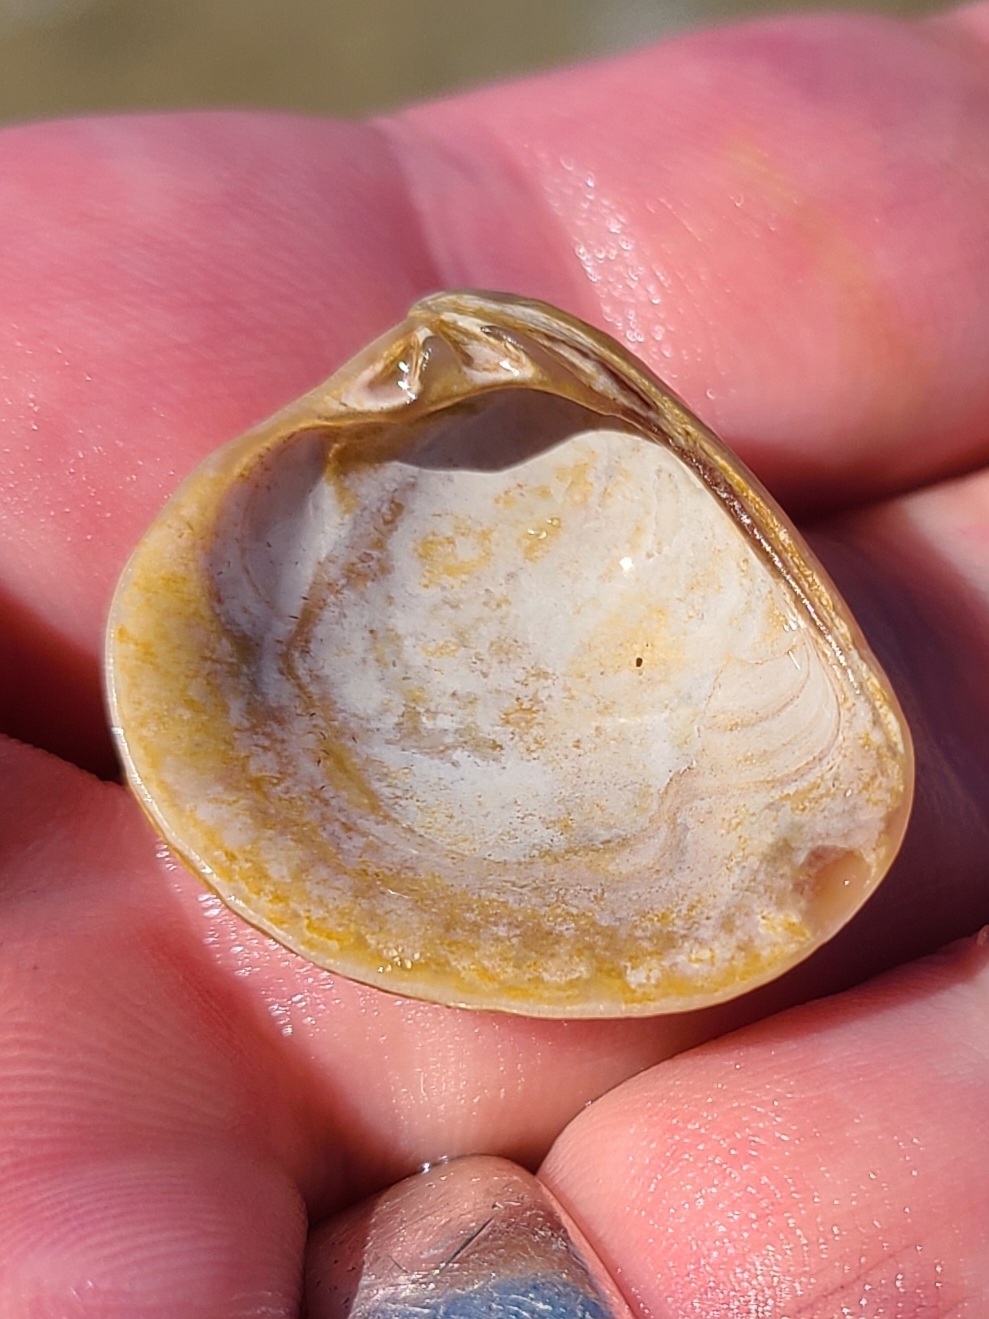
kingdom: Animalia
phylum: Mollusca
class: Bivalvia
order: Venerida
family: Veneridae
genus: Chione
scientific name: Chione elevata
